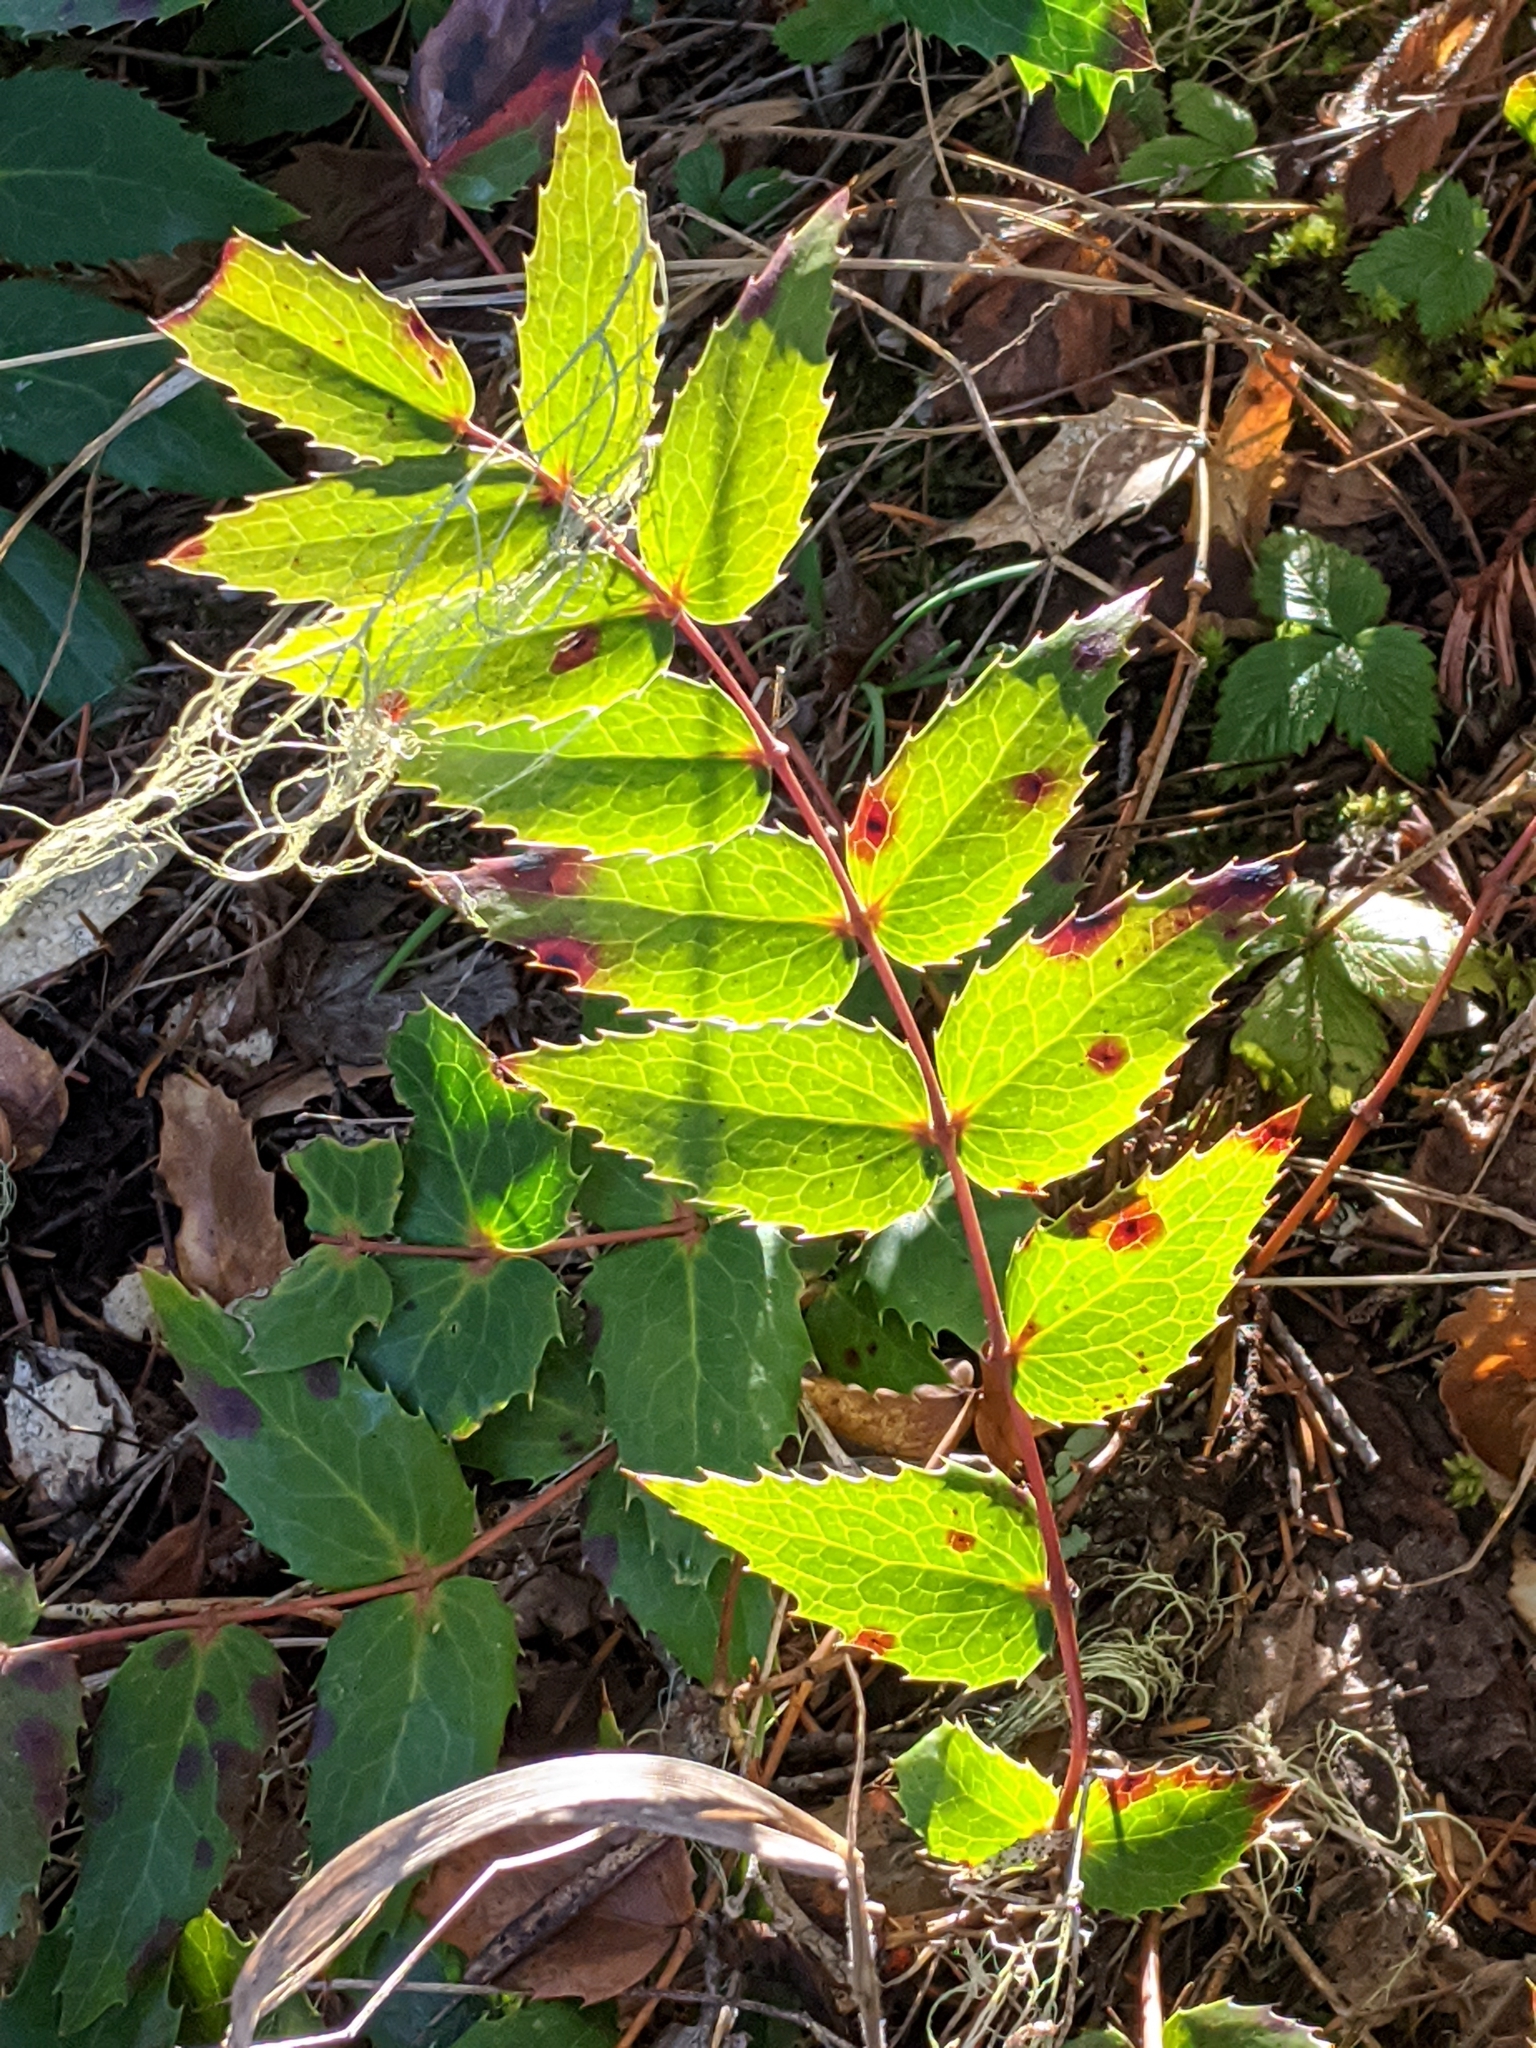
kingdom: Plantae
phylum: Tracheophyta
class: Magnoliopsida
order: Ranunculales
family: Berberidaceae
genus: Mahonia
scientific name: Mahonia nervosa
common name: Cascade oregon-grape
